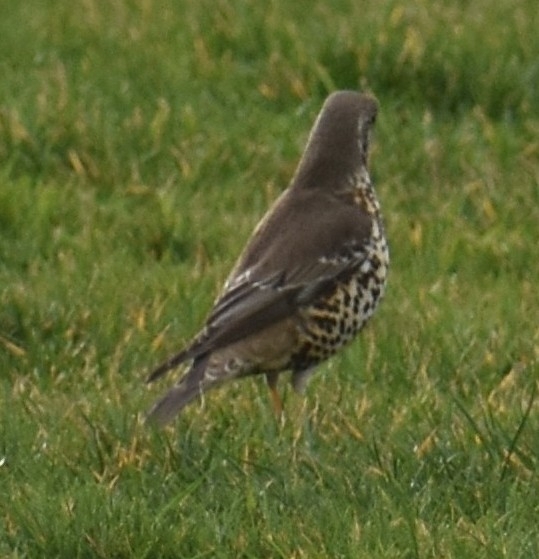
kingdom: Animalia
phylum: Chordata
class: Aves
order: Passeriformes
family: Turdidae
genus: Turdus
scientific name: Turdus viscivorus
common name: Mistle thrush
